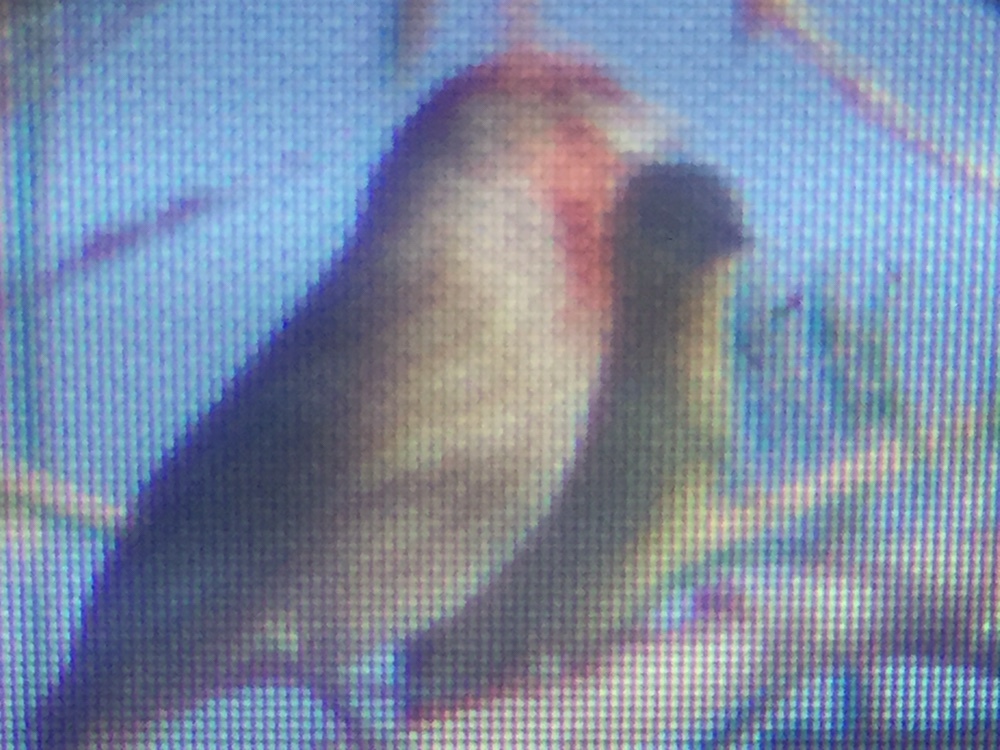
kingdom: Animalia
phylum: Chordata
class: Aves
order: Passeriformes
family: Fringillidae
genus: Haemorhous
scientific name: Haemorhous mexicanus
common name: House finch
